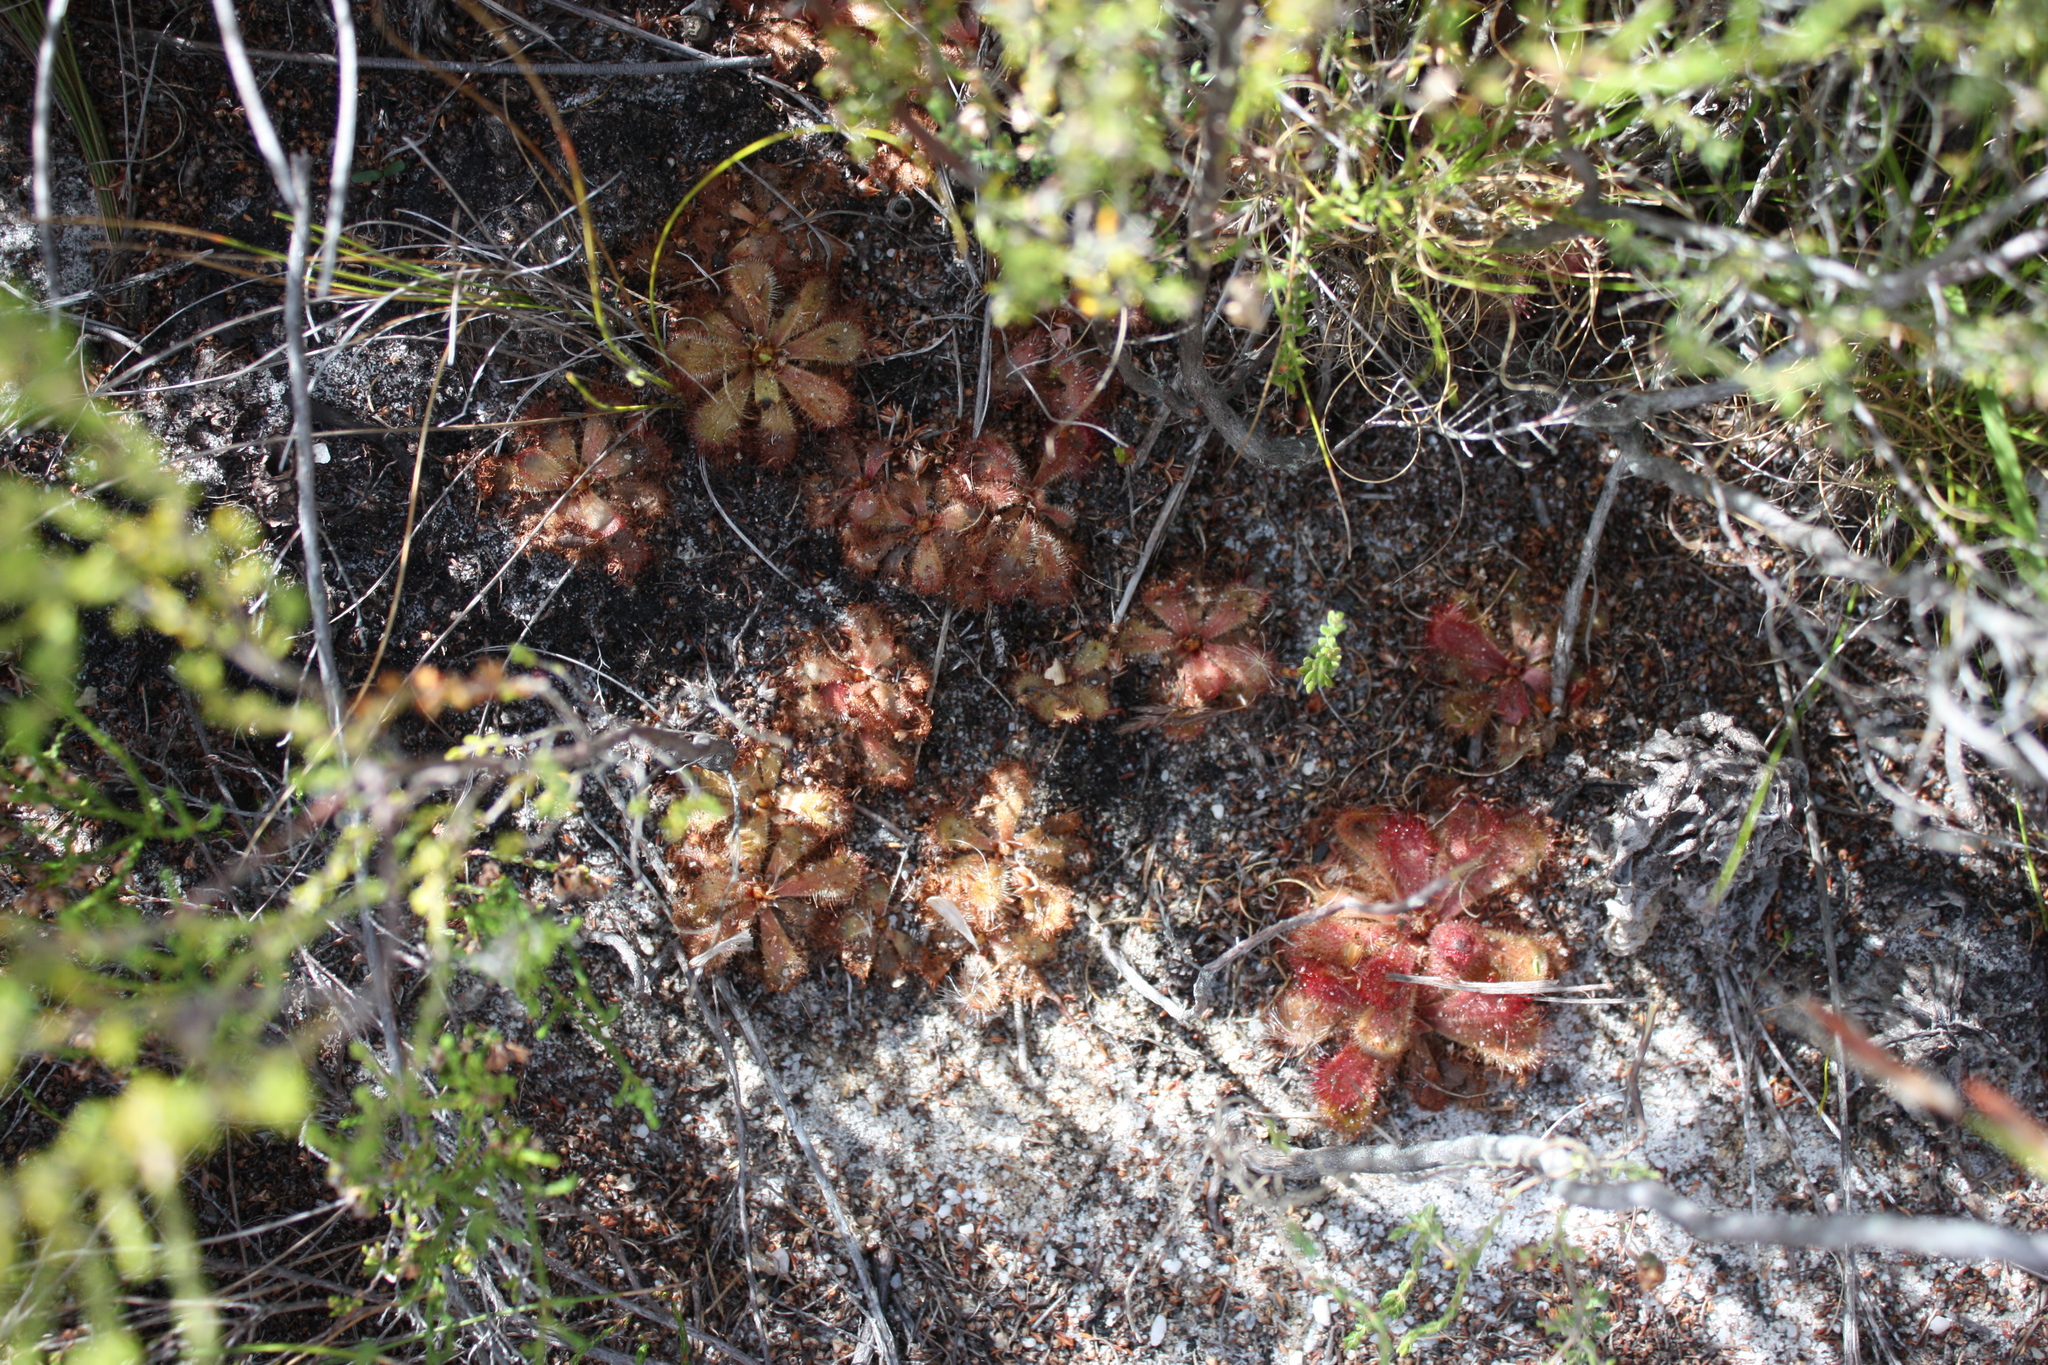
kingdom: Plantae
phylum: Tracheophyta
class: Magnoliopsida
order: Caryophyllales
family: Droseraceae
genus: Drosera
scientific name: Drosera cuneifolia
